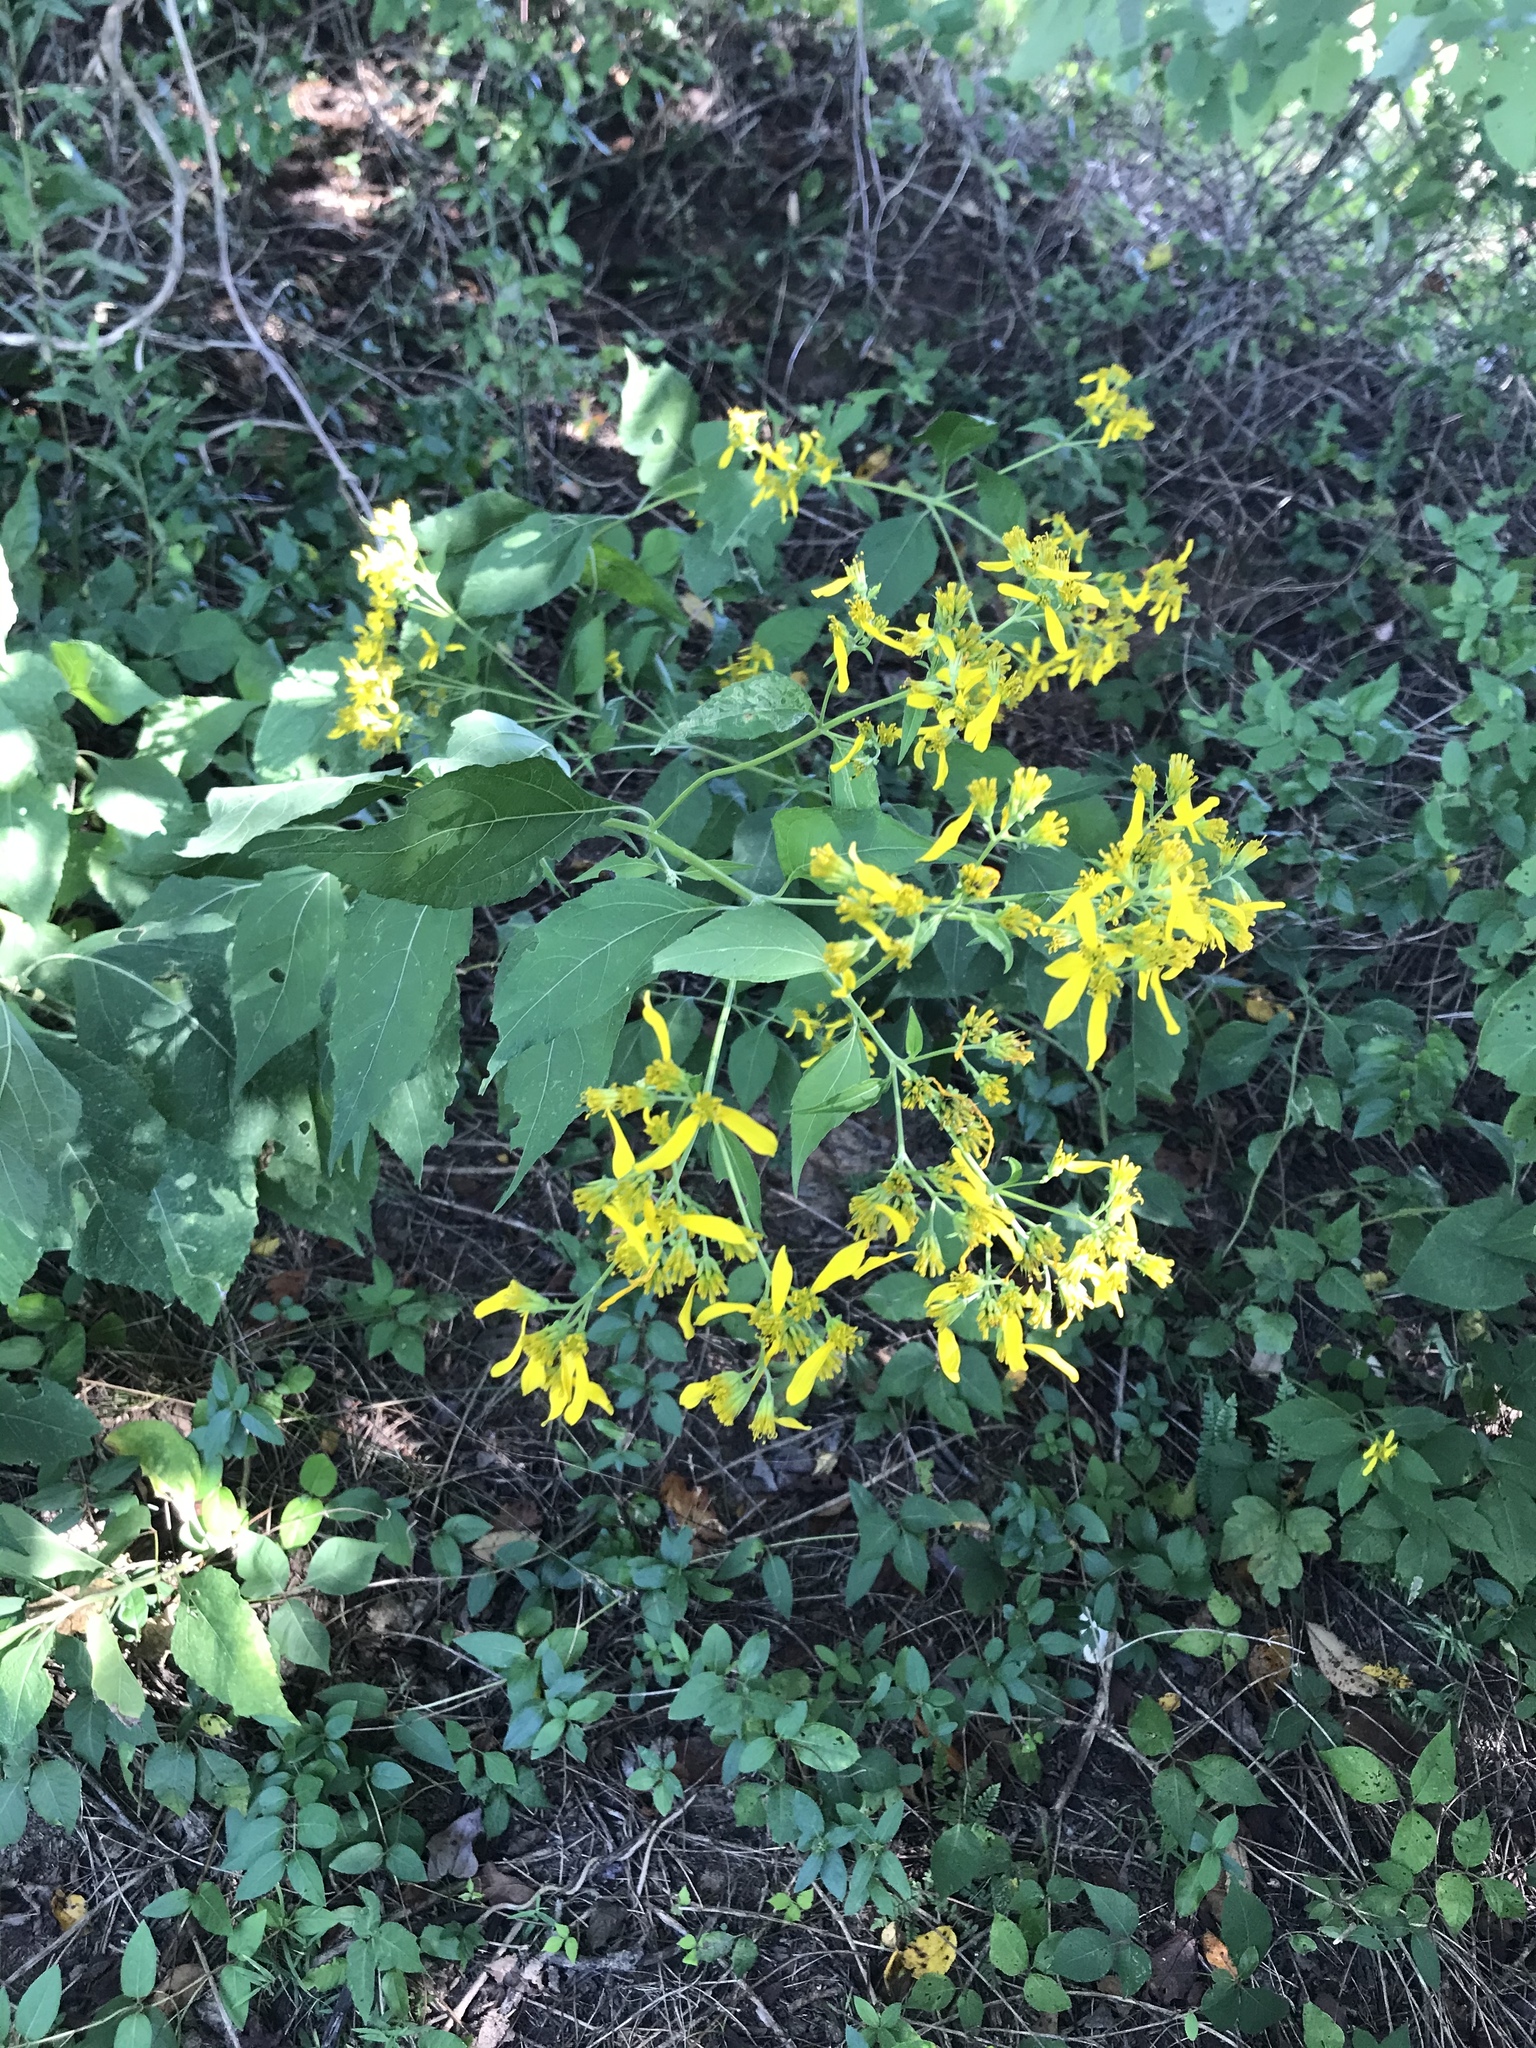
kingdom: Plantae
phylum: Tracheophyta
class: Magnoliopsida
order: Asterales
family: Asteraceae
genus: Verbesina
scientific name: Verbesina occidentalis
